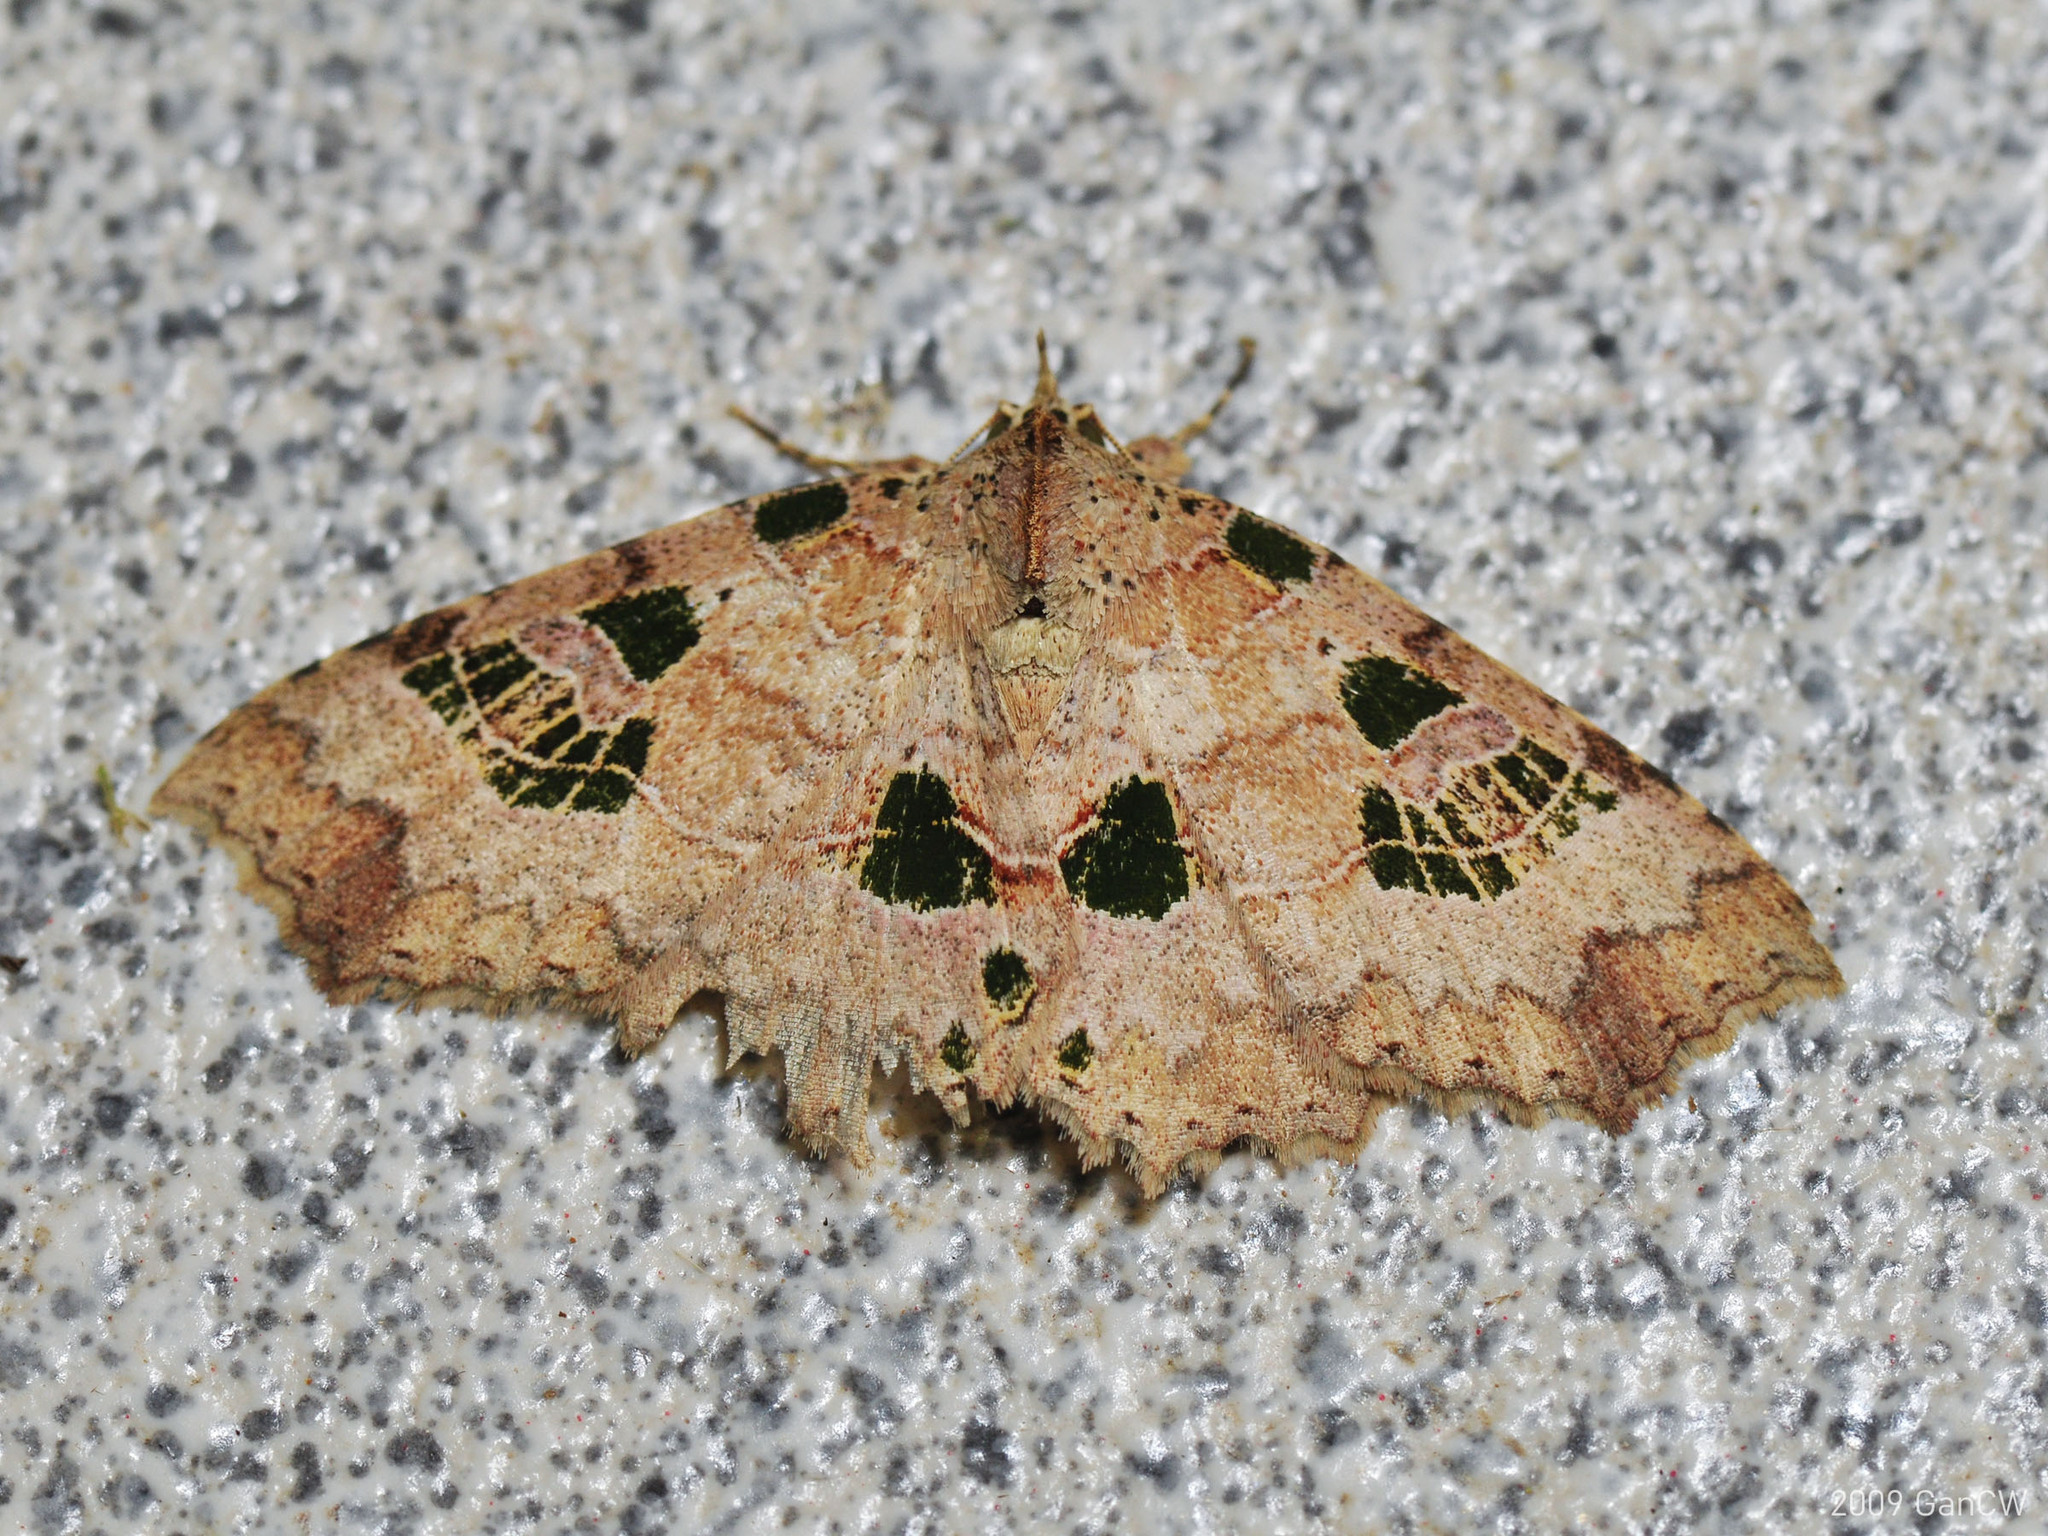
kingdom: Animalia
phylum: Arthropoda
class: Insecta
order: Lepidoptera
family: Erebidae
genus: Tamba
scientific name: Tamba delicata
